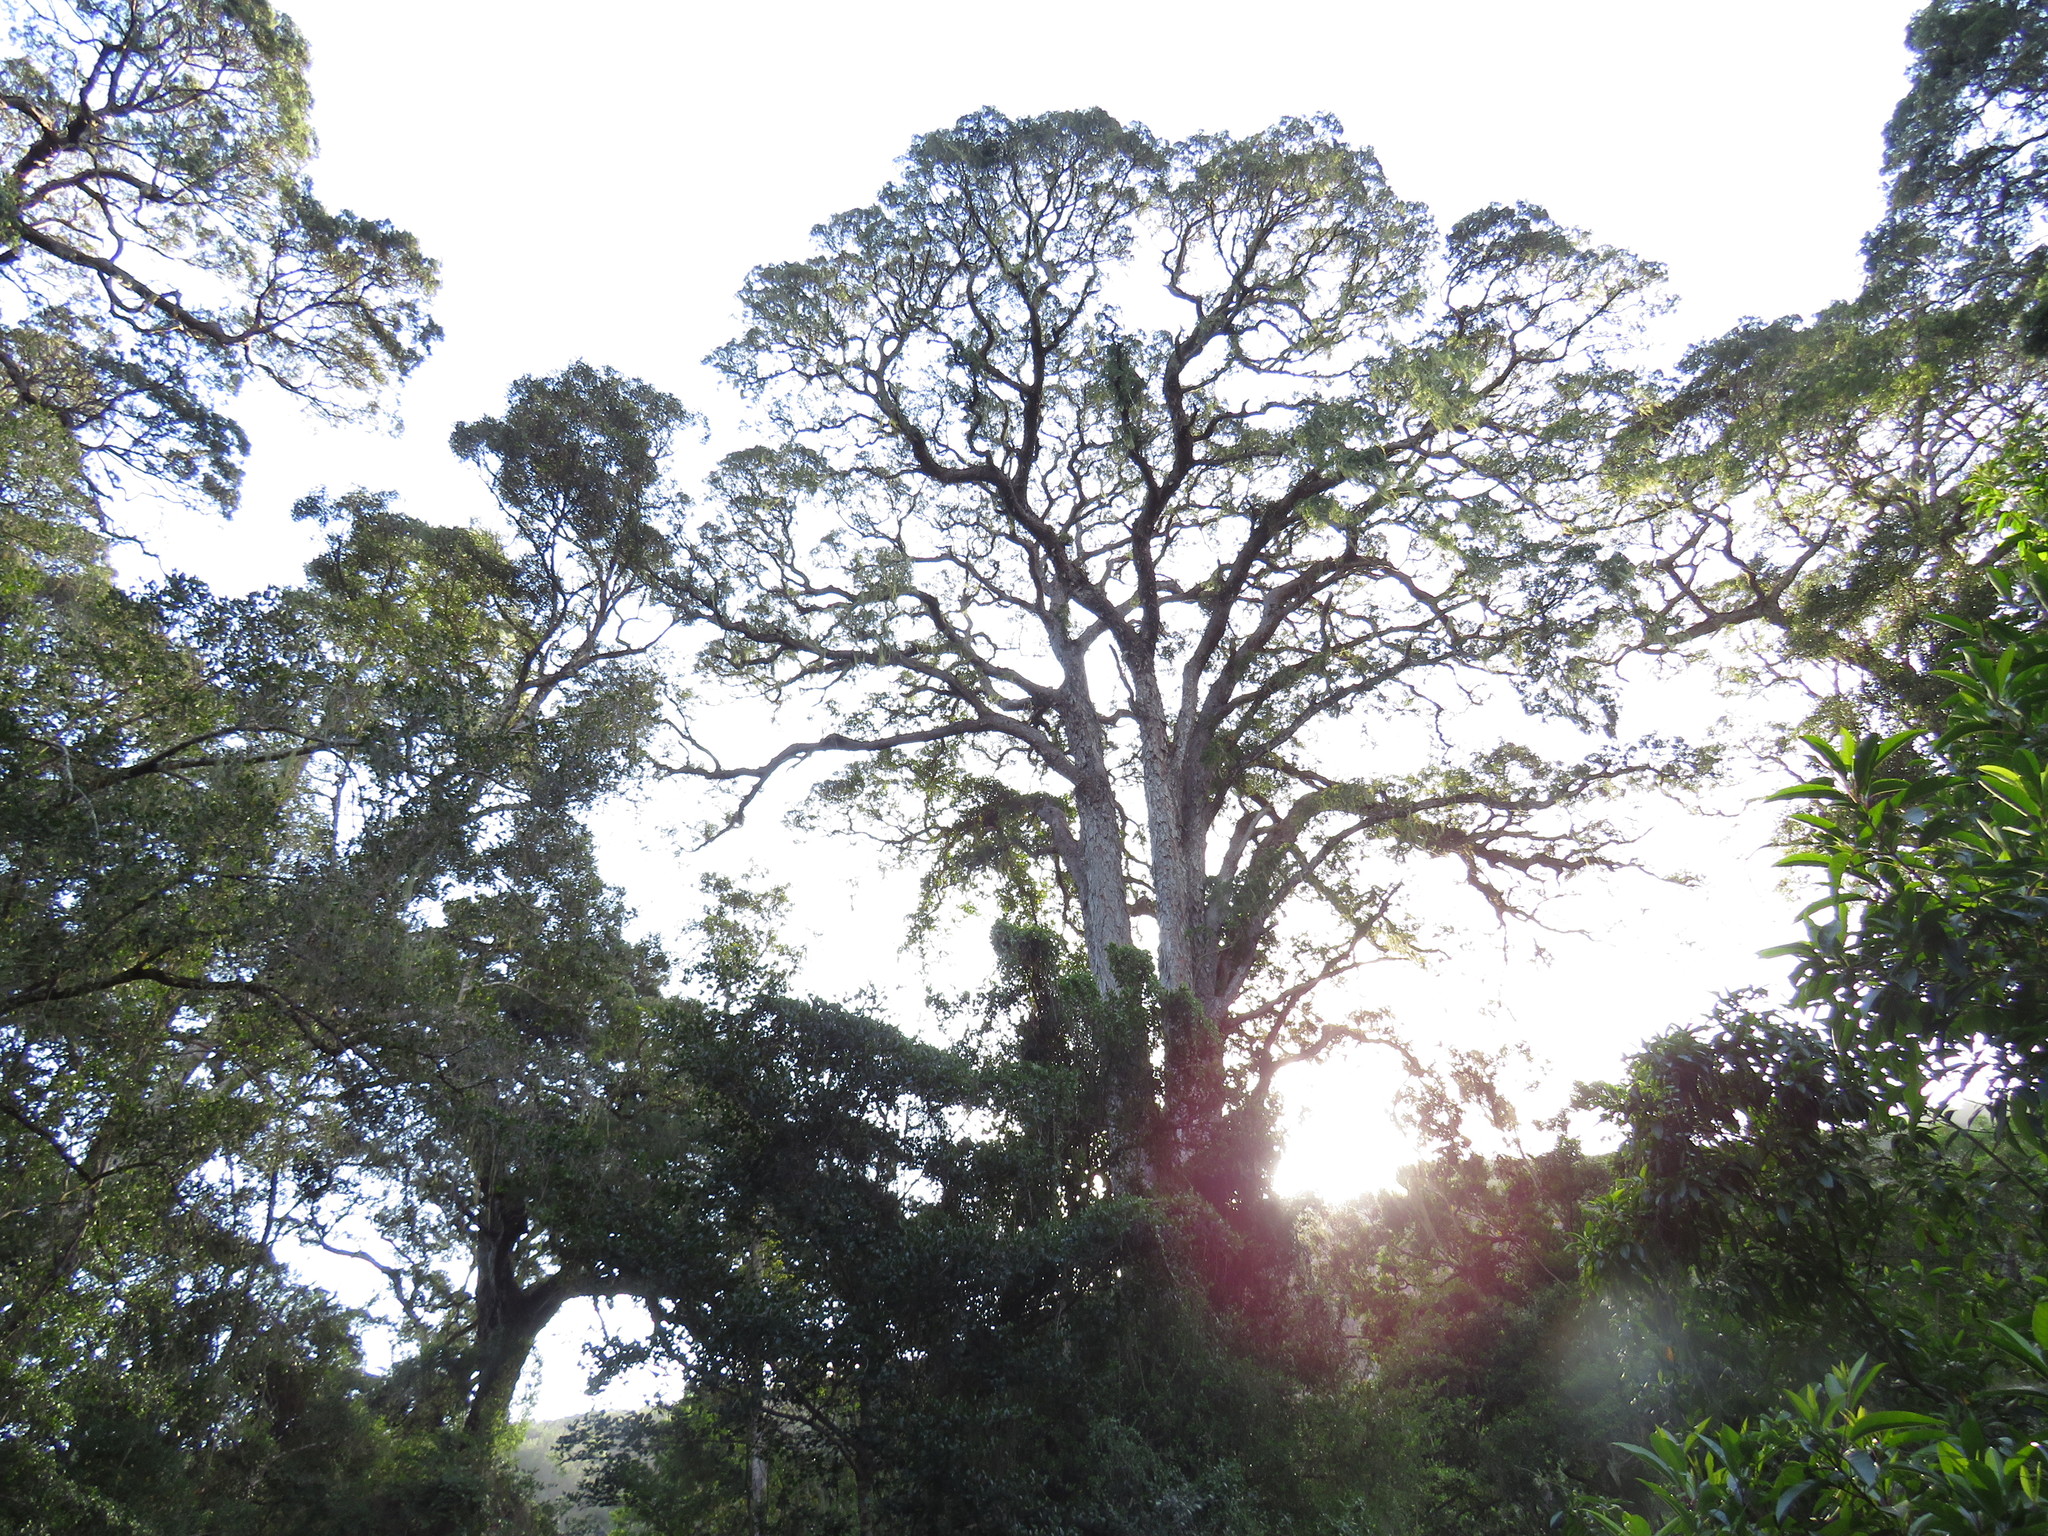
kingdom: Plantae
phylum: Tracheophyta
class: Pinopsida
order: Pinales
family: Podocarpaceae
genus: Afrocarpus
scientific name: Afrocarpus falcatus
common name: Bastard yellowwood
